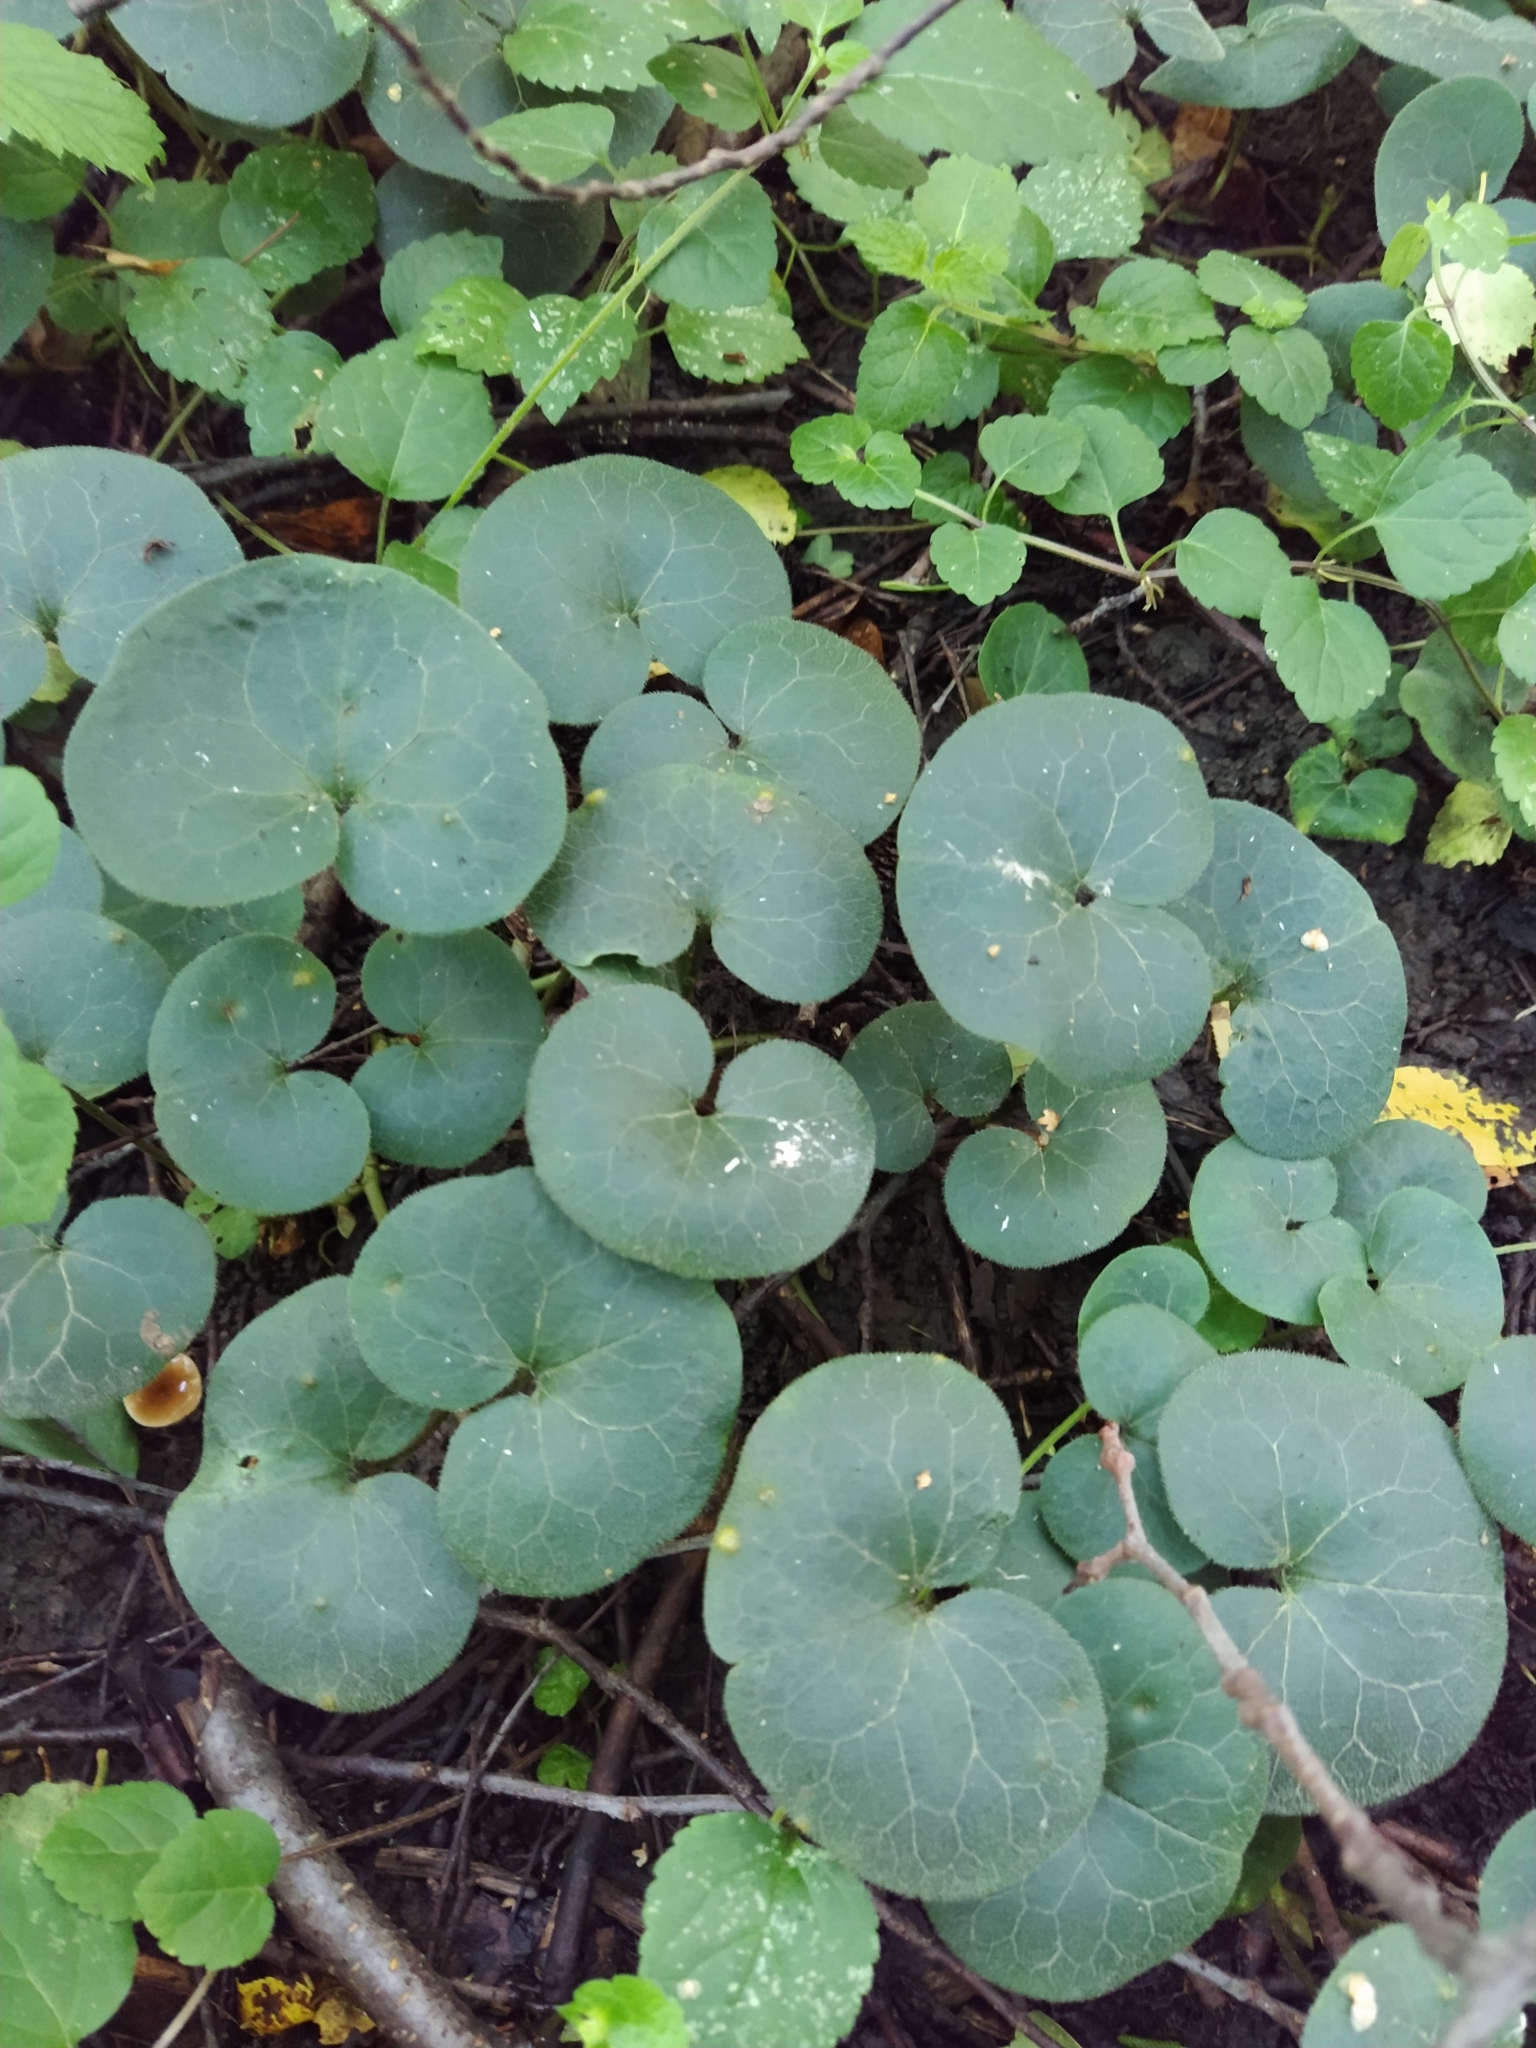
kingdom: Plantae
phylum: Tracheophyta
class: Magnoliopsida
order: Piperales
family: Aristolochiaceae
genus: Asarum
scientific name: Asarum europaeum
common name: Asarabacca
